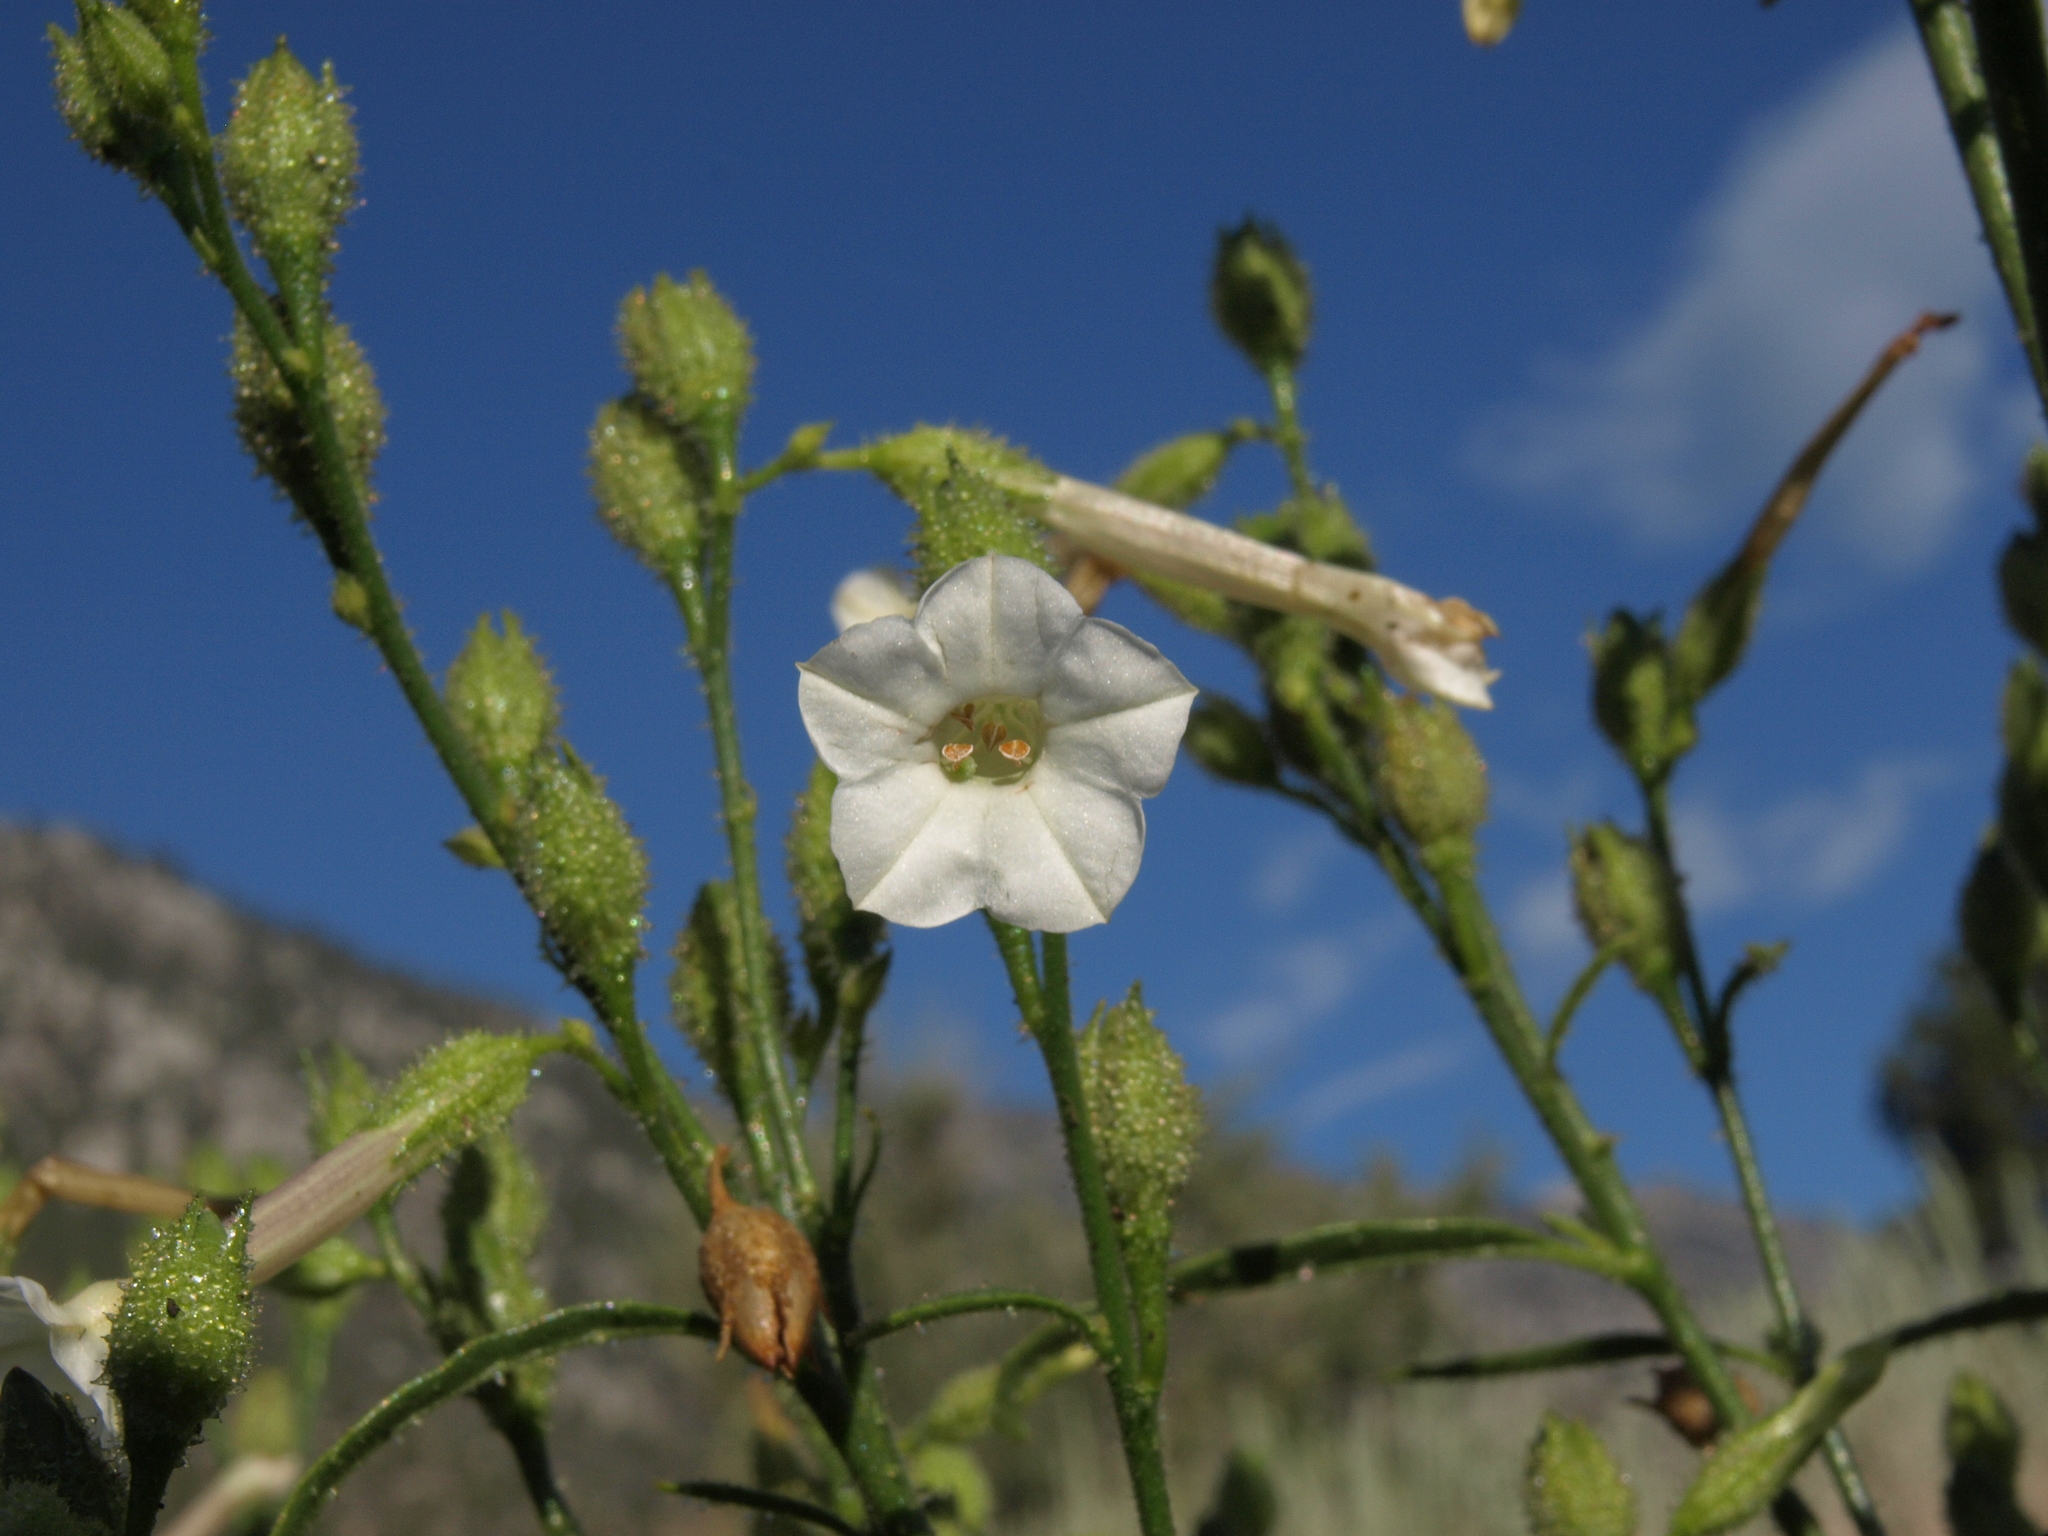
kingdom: Plantae
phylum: Tracheophyta
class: Magnoliopsida
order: Solanales
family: Solanaceae
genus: Nicotiana
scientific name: Nicotiana attenuata
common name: Coyote tobacco
